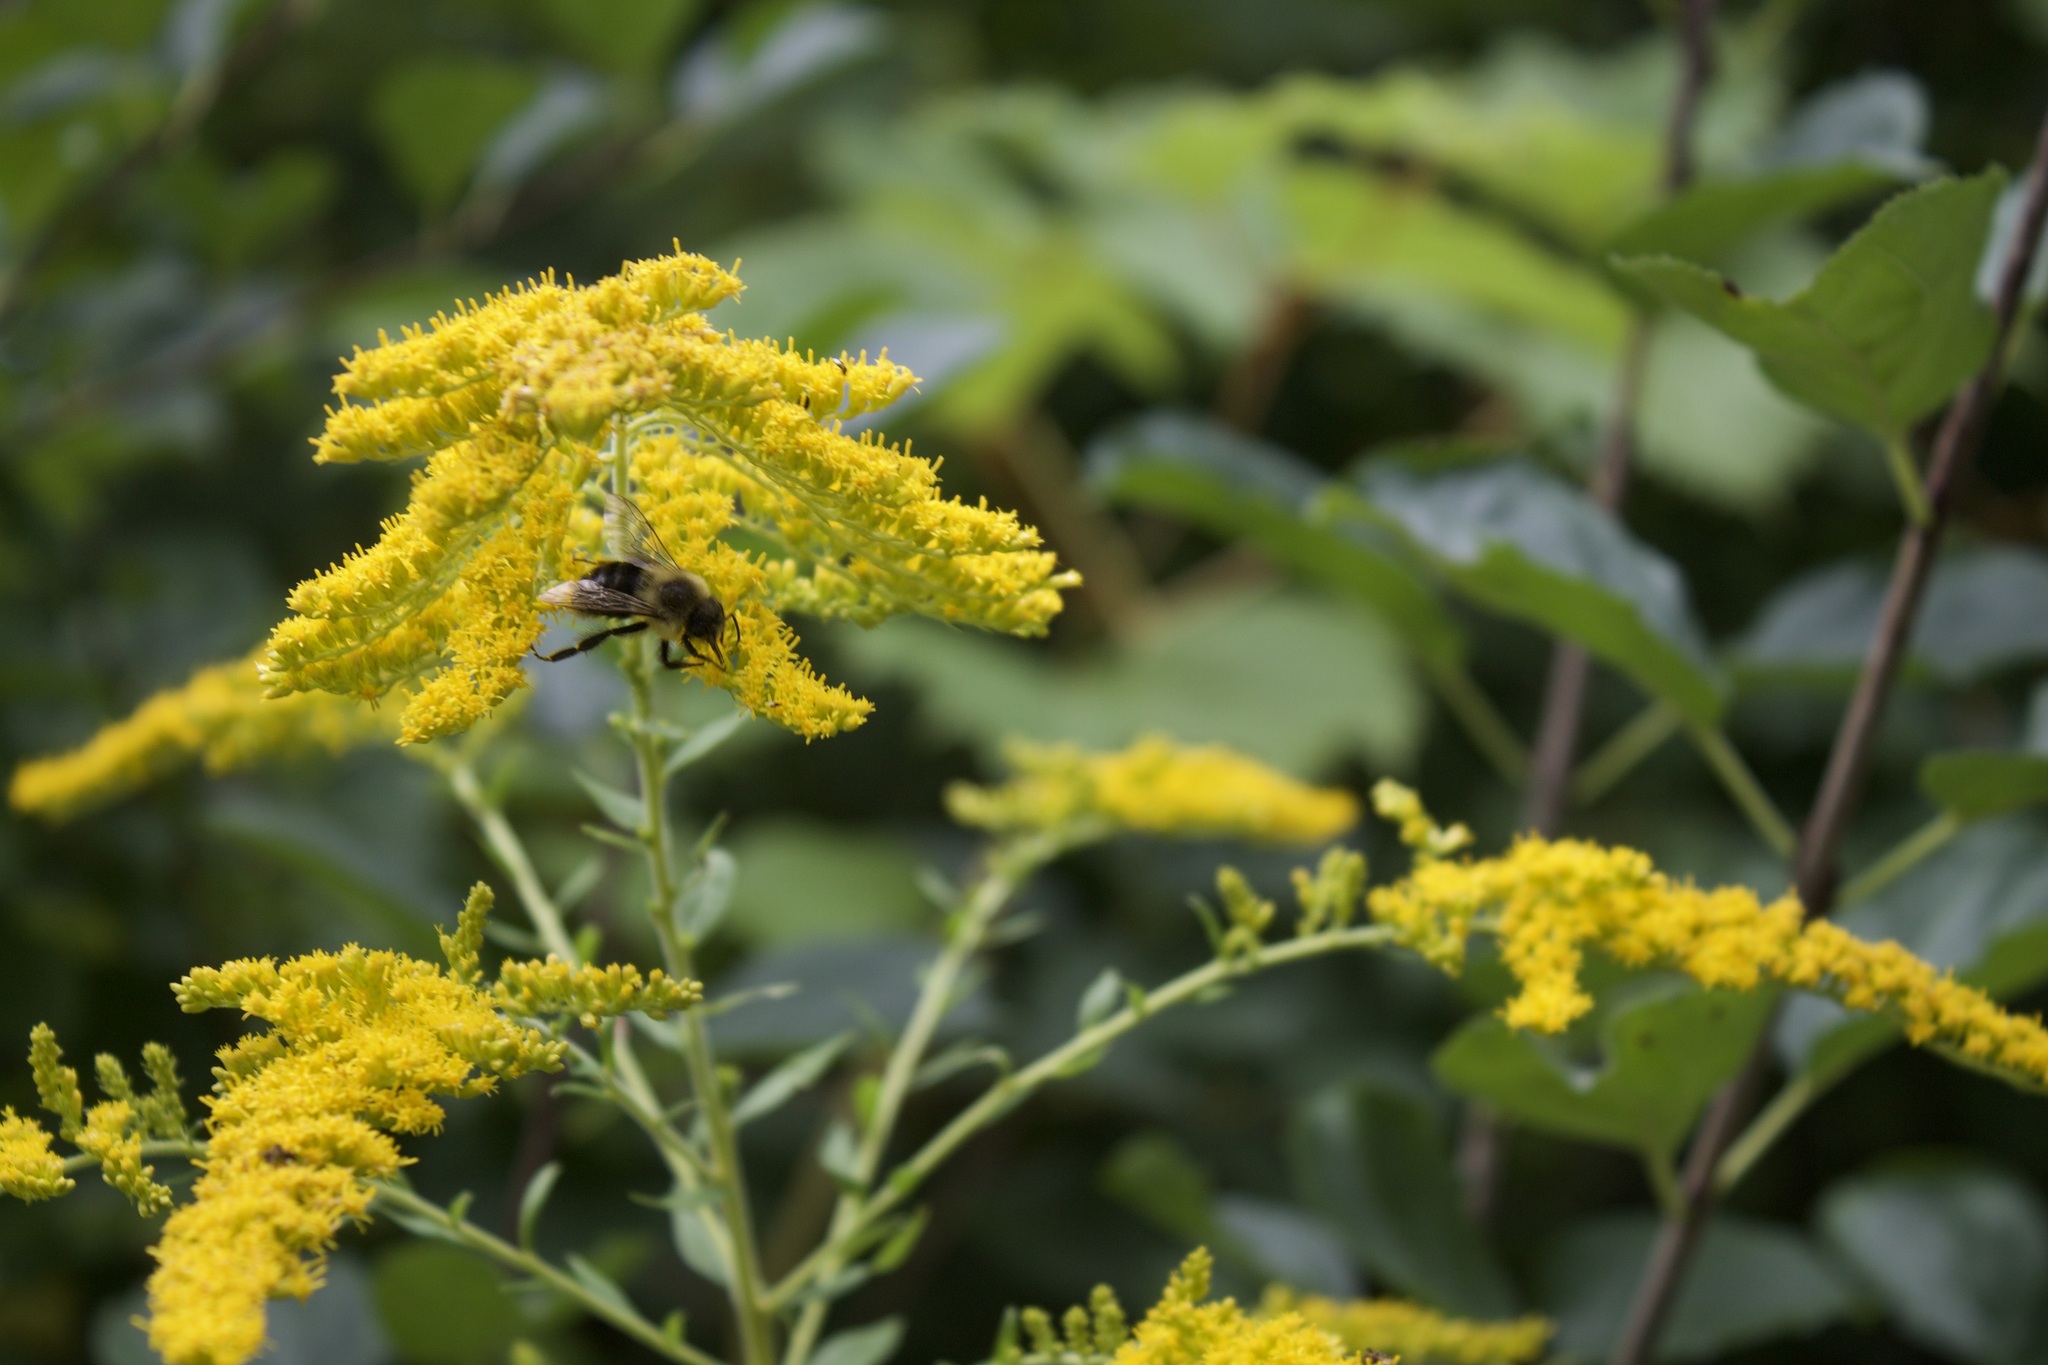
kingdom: Animalia
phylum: Arthropoda
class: Insecta
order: Hymenoptera
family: Apidae
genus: Bombus
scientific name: Bombus impatiens
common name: Common eastern bumble bee
